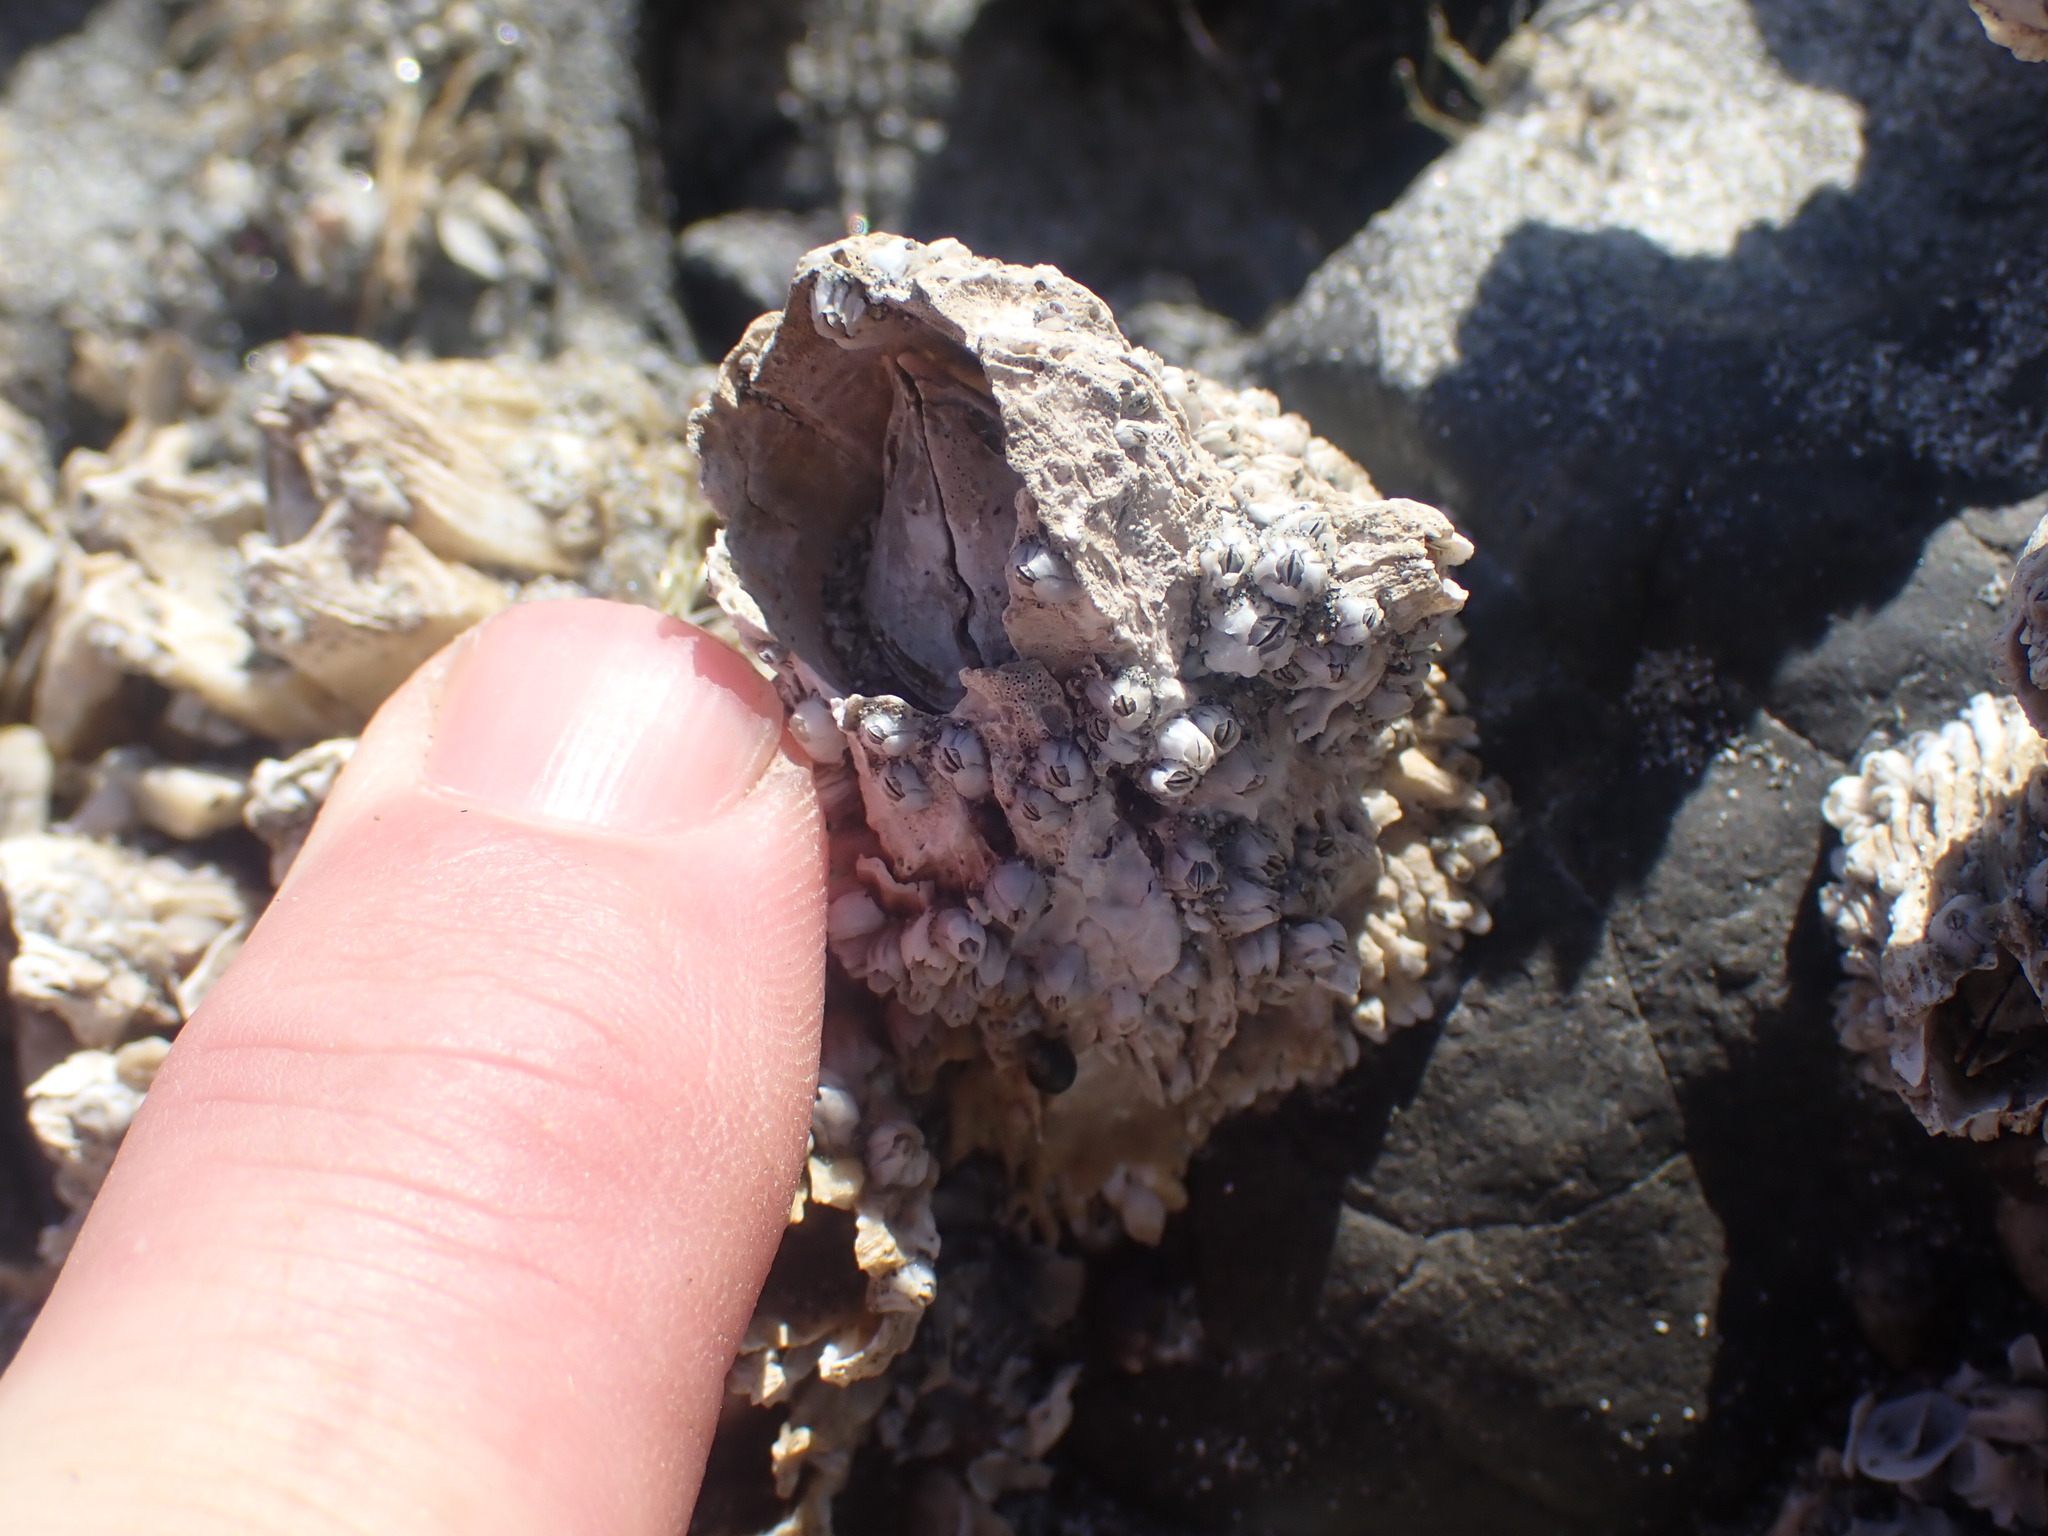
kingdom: Animalia
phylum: Arthropoda
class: Maxillopoda
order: Sessilia
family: Archaeobalanidae
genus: Semibalanus
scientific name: Semibalanus cariosus
